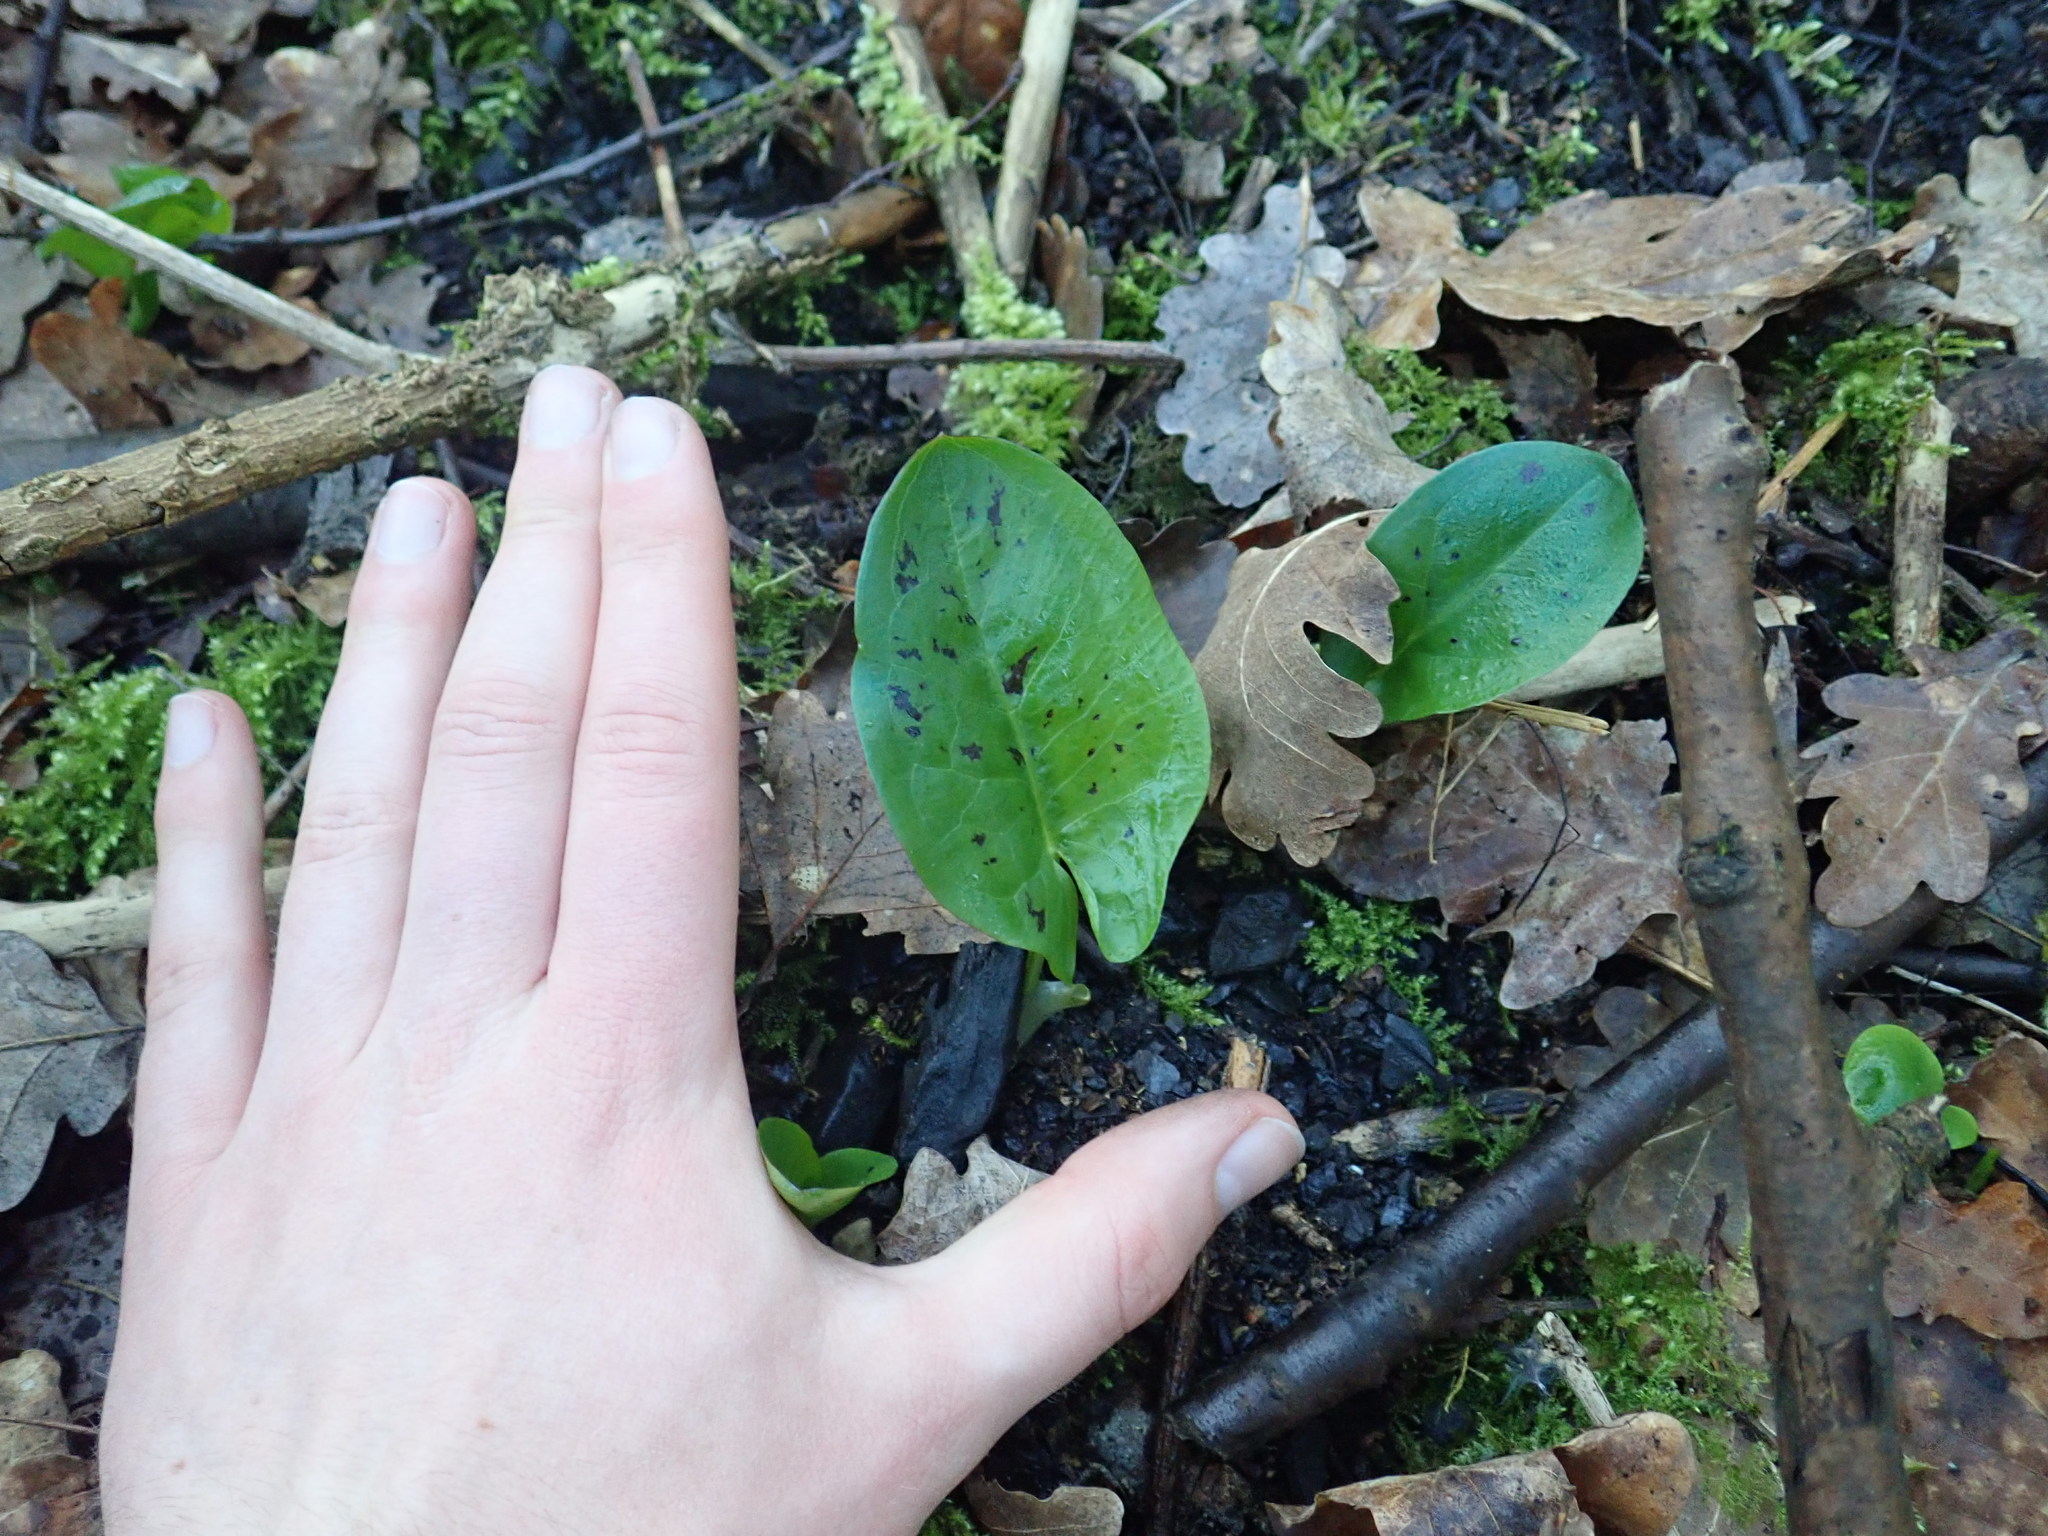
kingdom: Plantae
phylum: Tracheophyta
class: Liliopsida
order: Alismatales
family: Araceae
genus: Arum
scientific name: Arum maculatum
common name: Lords-and-ladies
